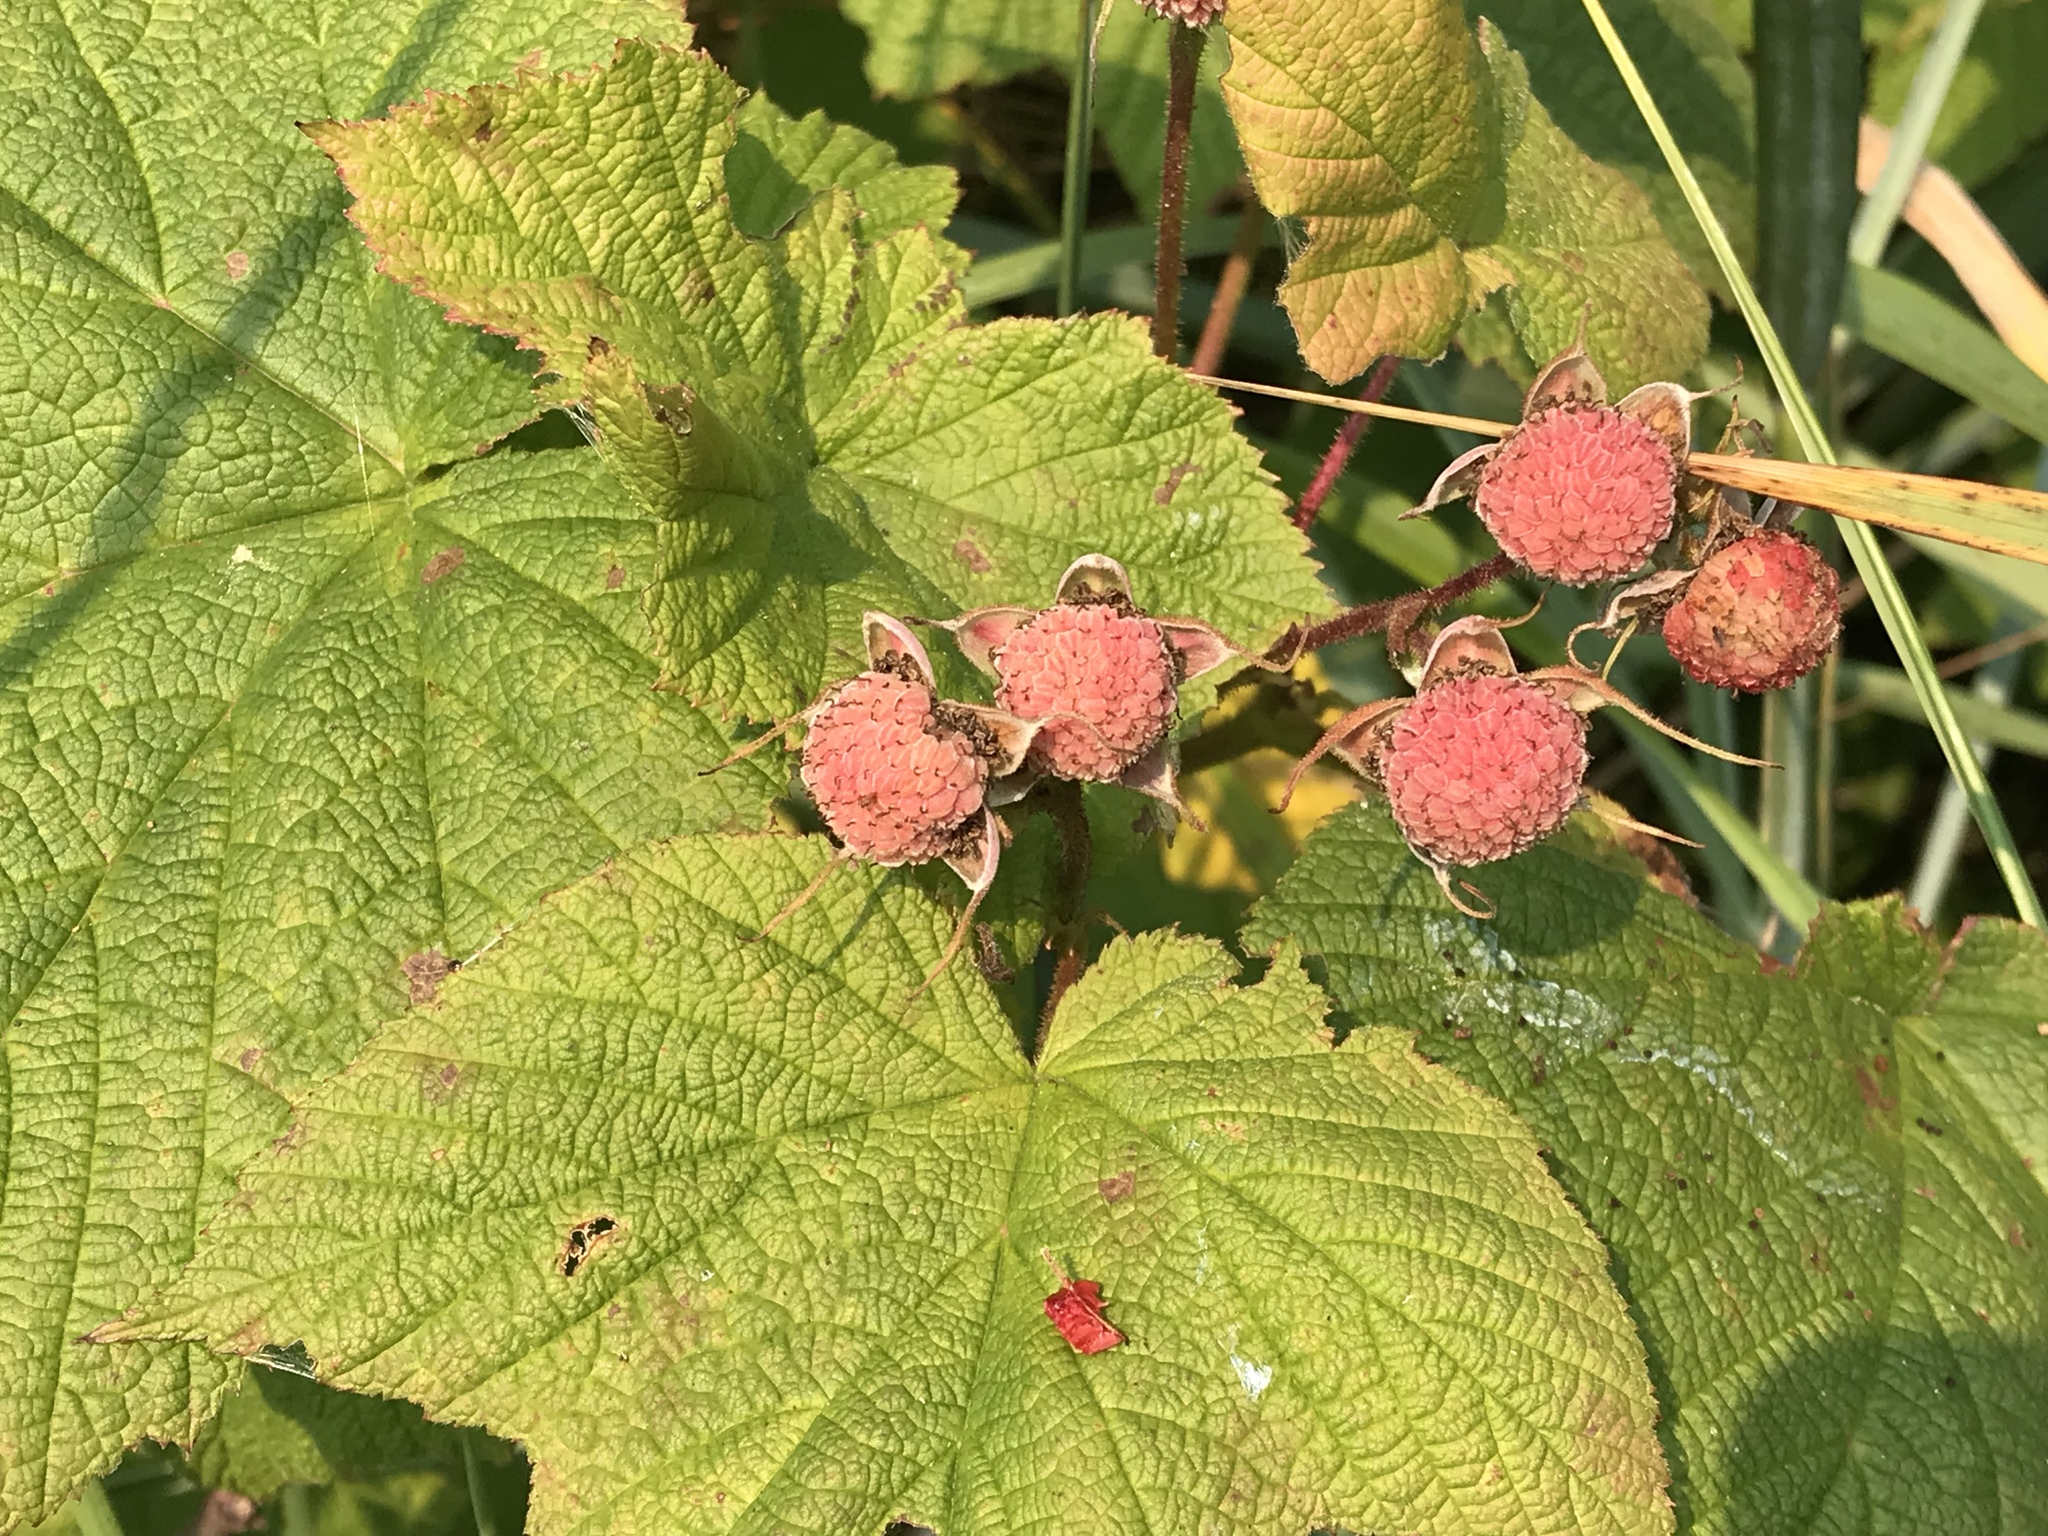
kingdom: Plantae
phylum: Tracheophyta
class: Magnoliopsida
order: Rosales
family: Rosaceae
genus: Rubus
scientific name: Rubus parviflorus
